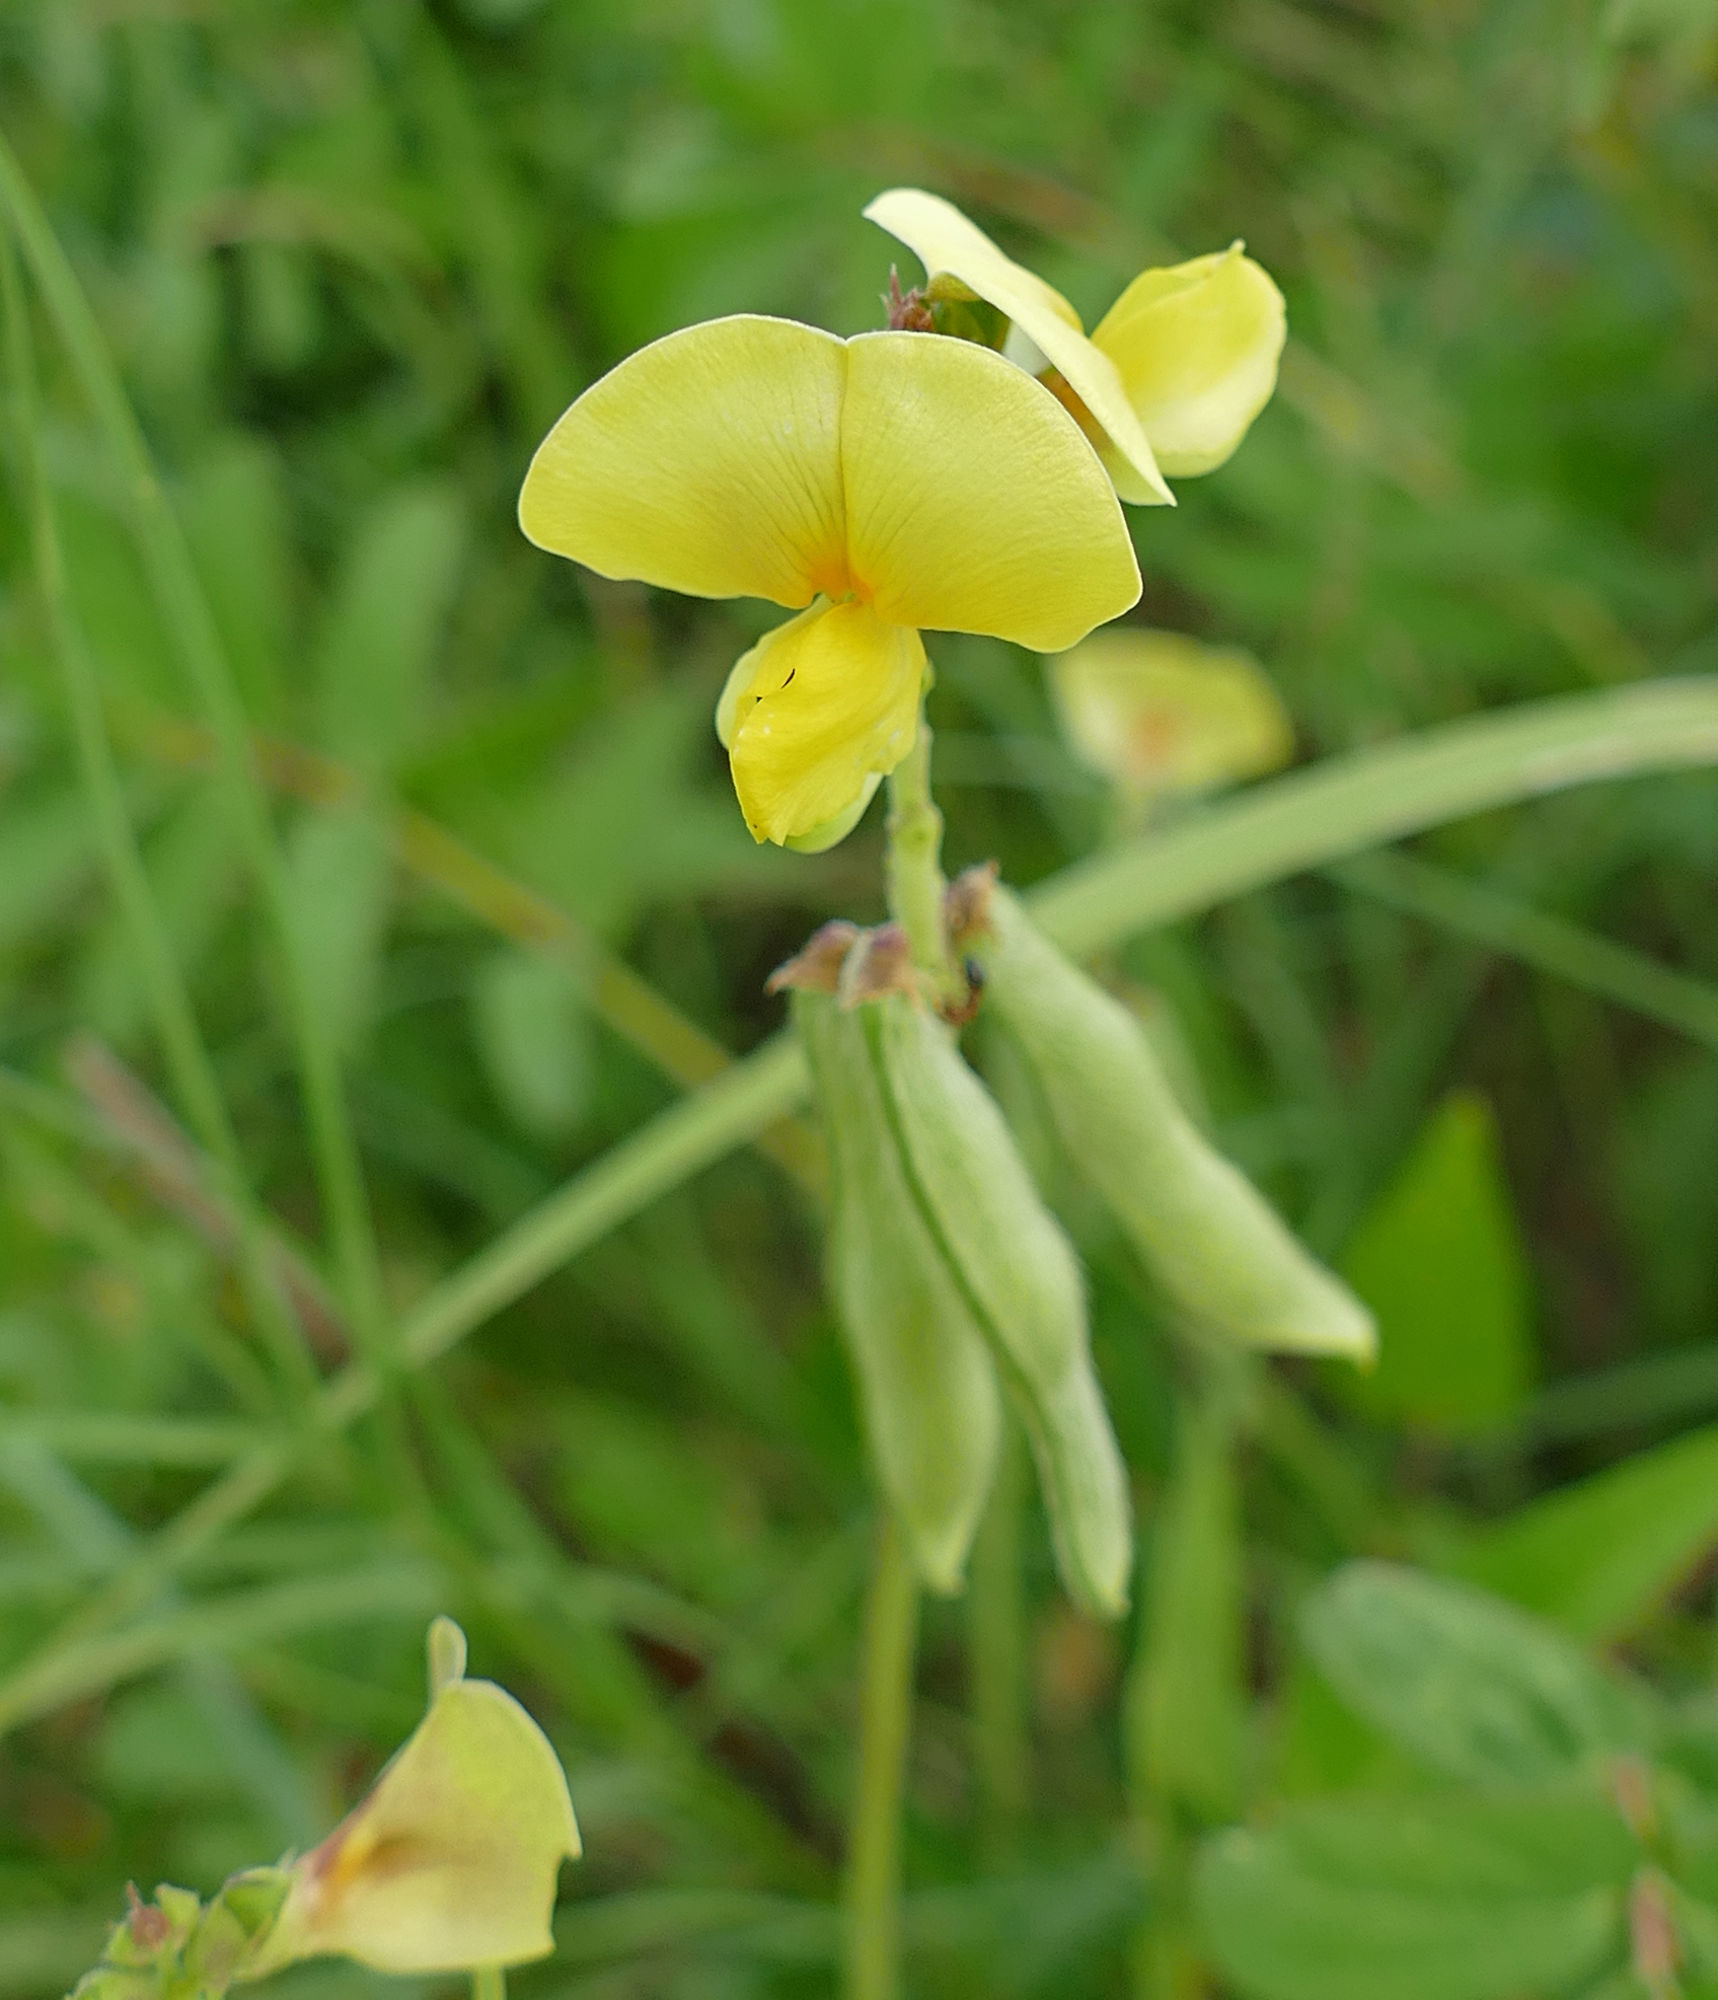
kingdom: Plantae
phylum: Tracheophyta
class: Magnoliopsida
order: Fabales
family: Fabaceae
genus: Vigna
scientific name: Vigna luteola
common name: Hairypod cowpea
